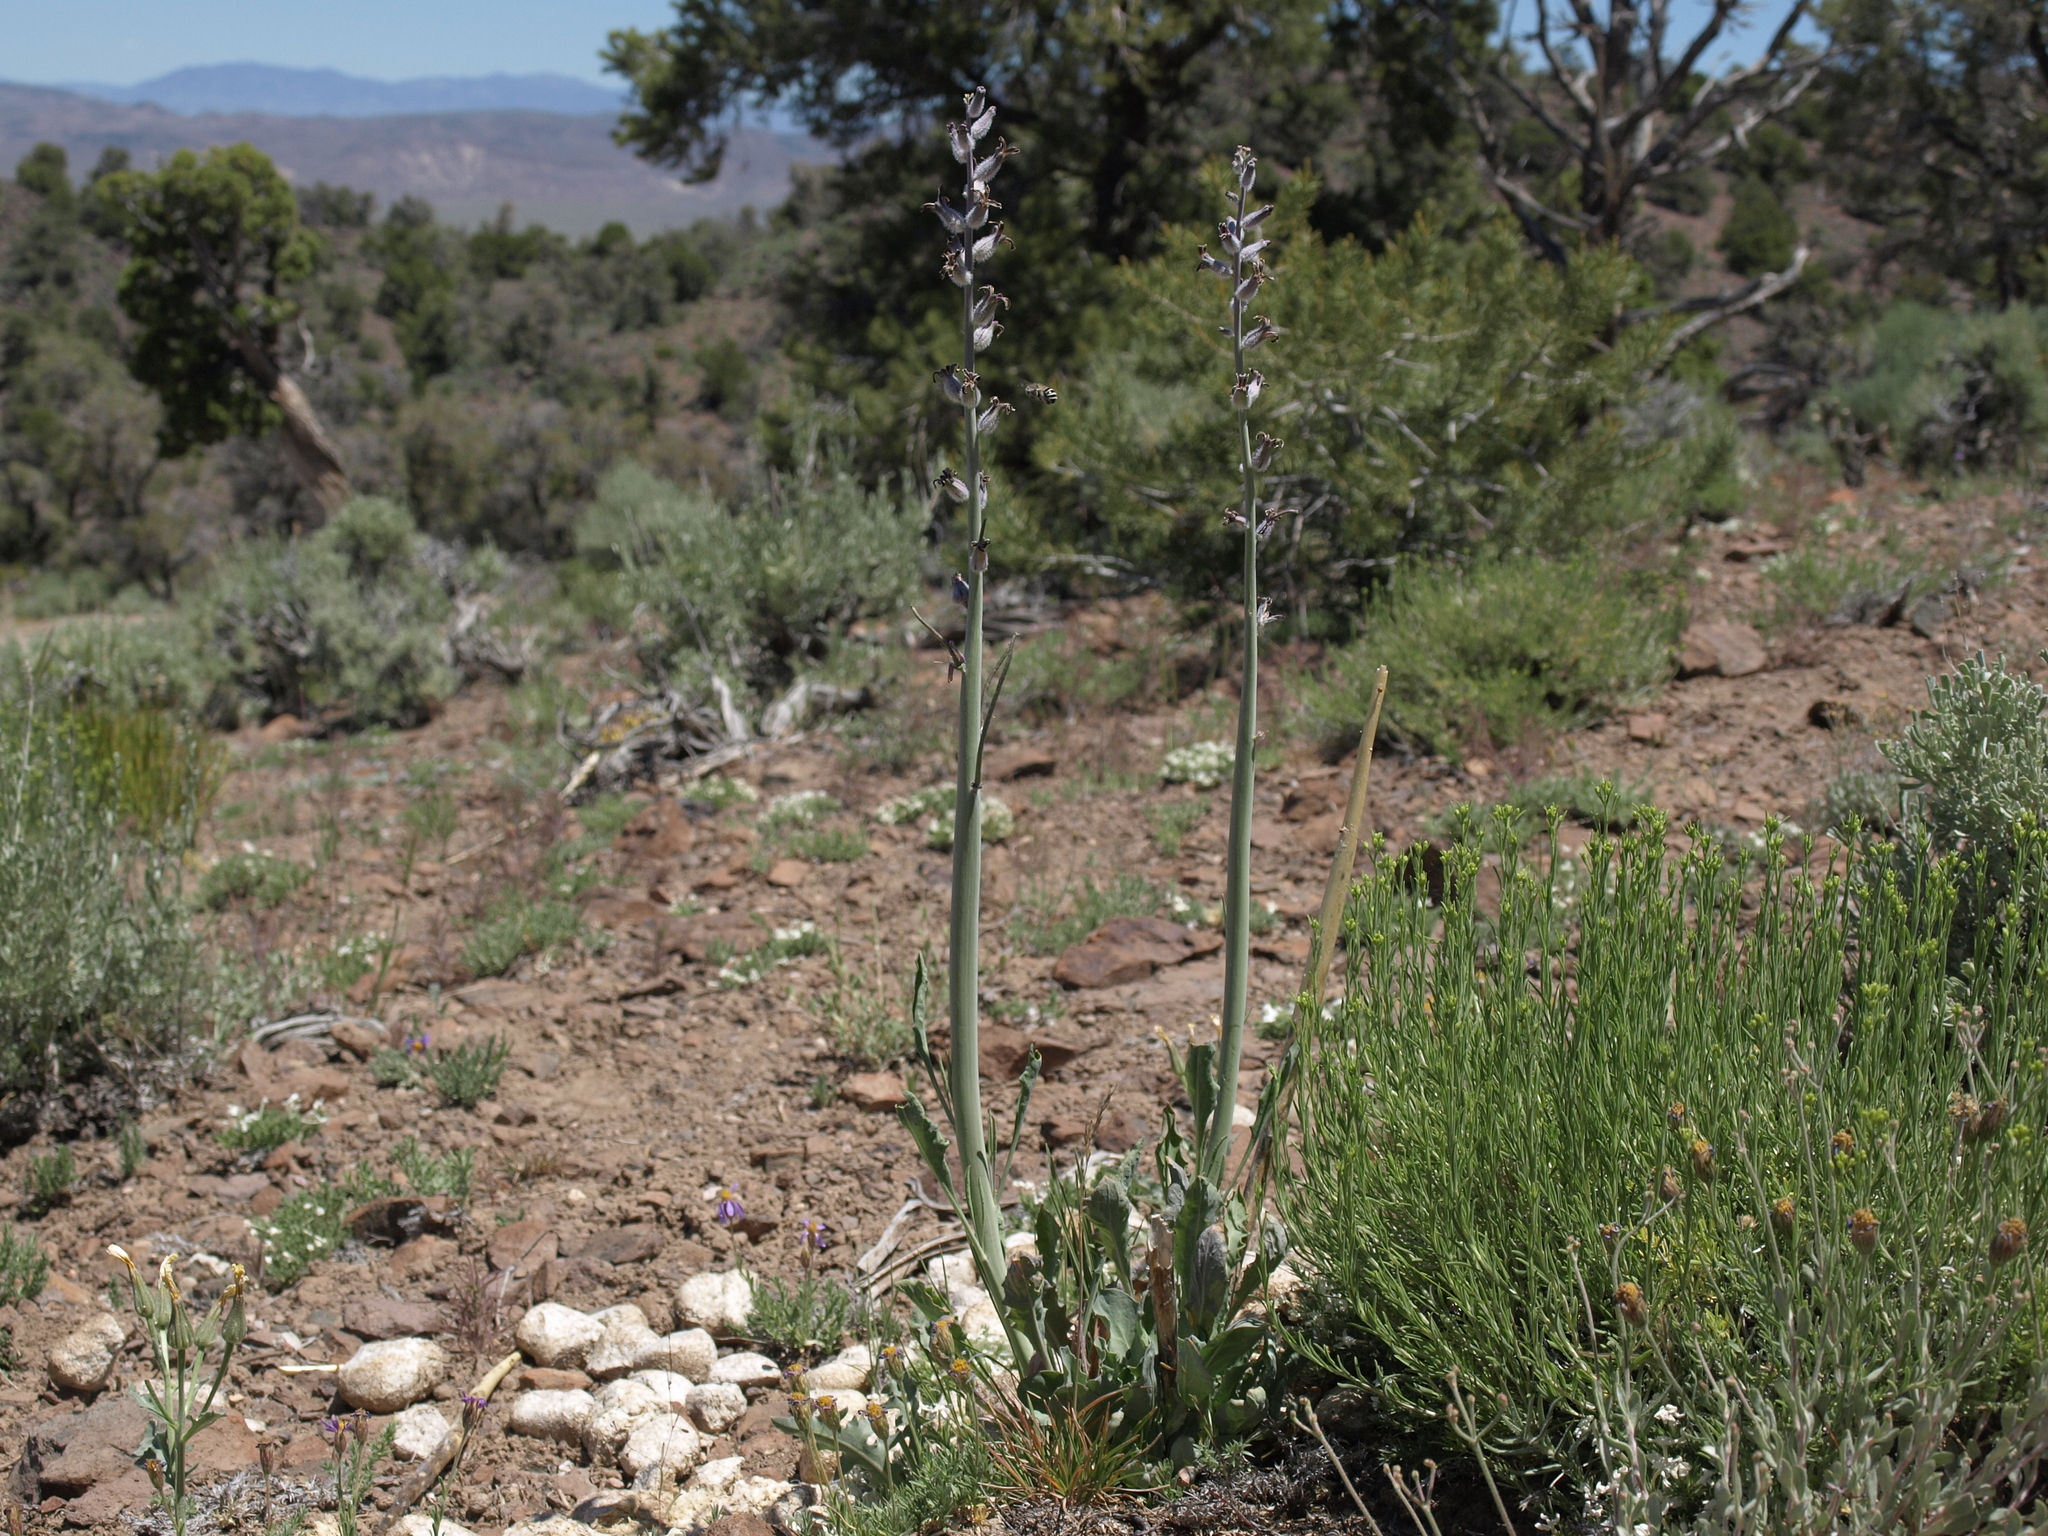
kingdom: Plantae
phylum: Tracheophyta
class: Magnoliopsida
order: Brassicales
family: Brassicaceae
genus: Streptanthus
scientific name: Streptanthus crassicaulis
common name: Thick-stem wild cabbage
